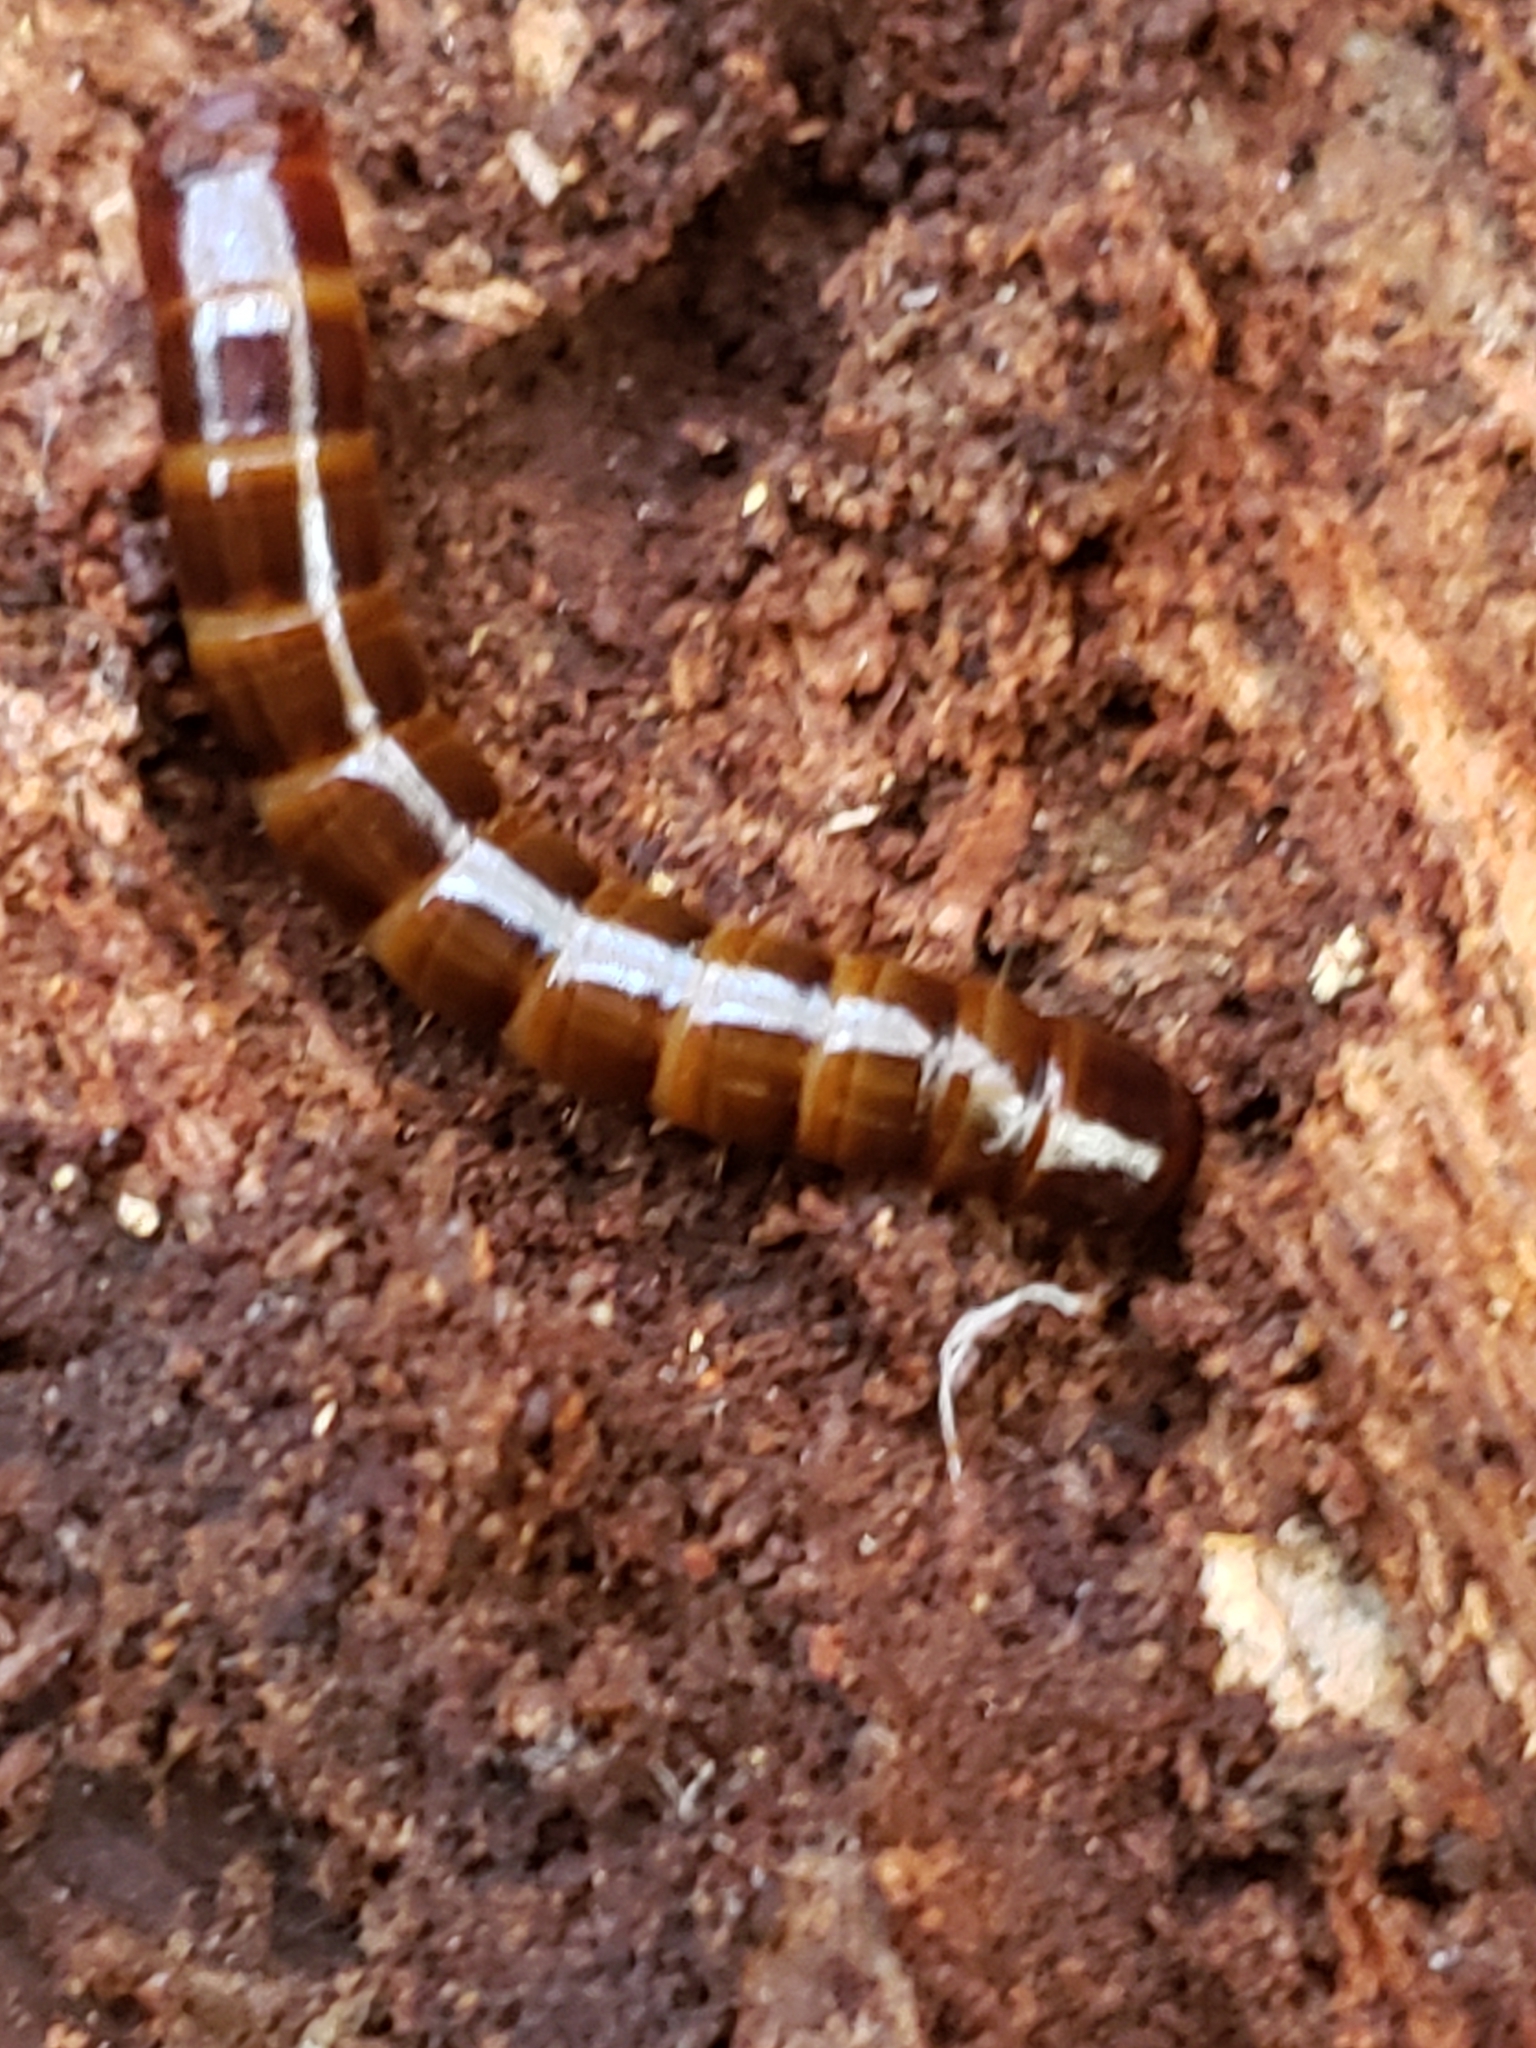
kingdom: Animalia
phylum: Arthropoda
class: Insecta
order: Coleoptera
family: Tenebrionidae
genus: Meracantha
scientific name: Meracantha contracta
